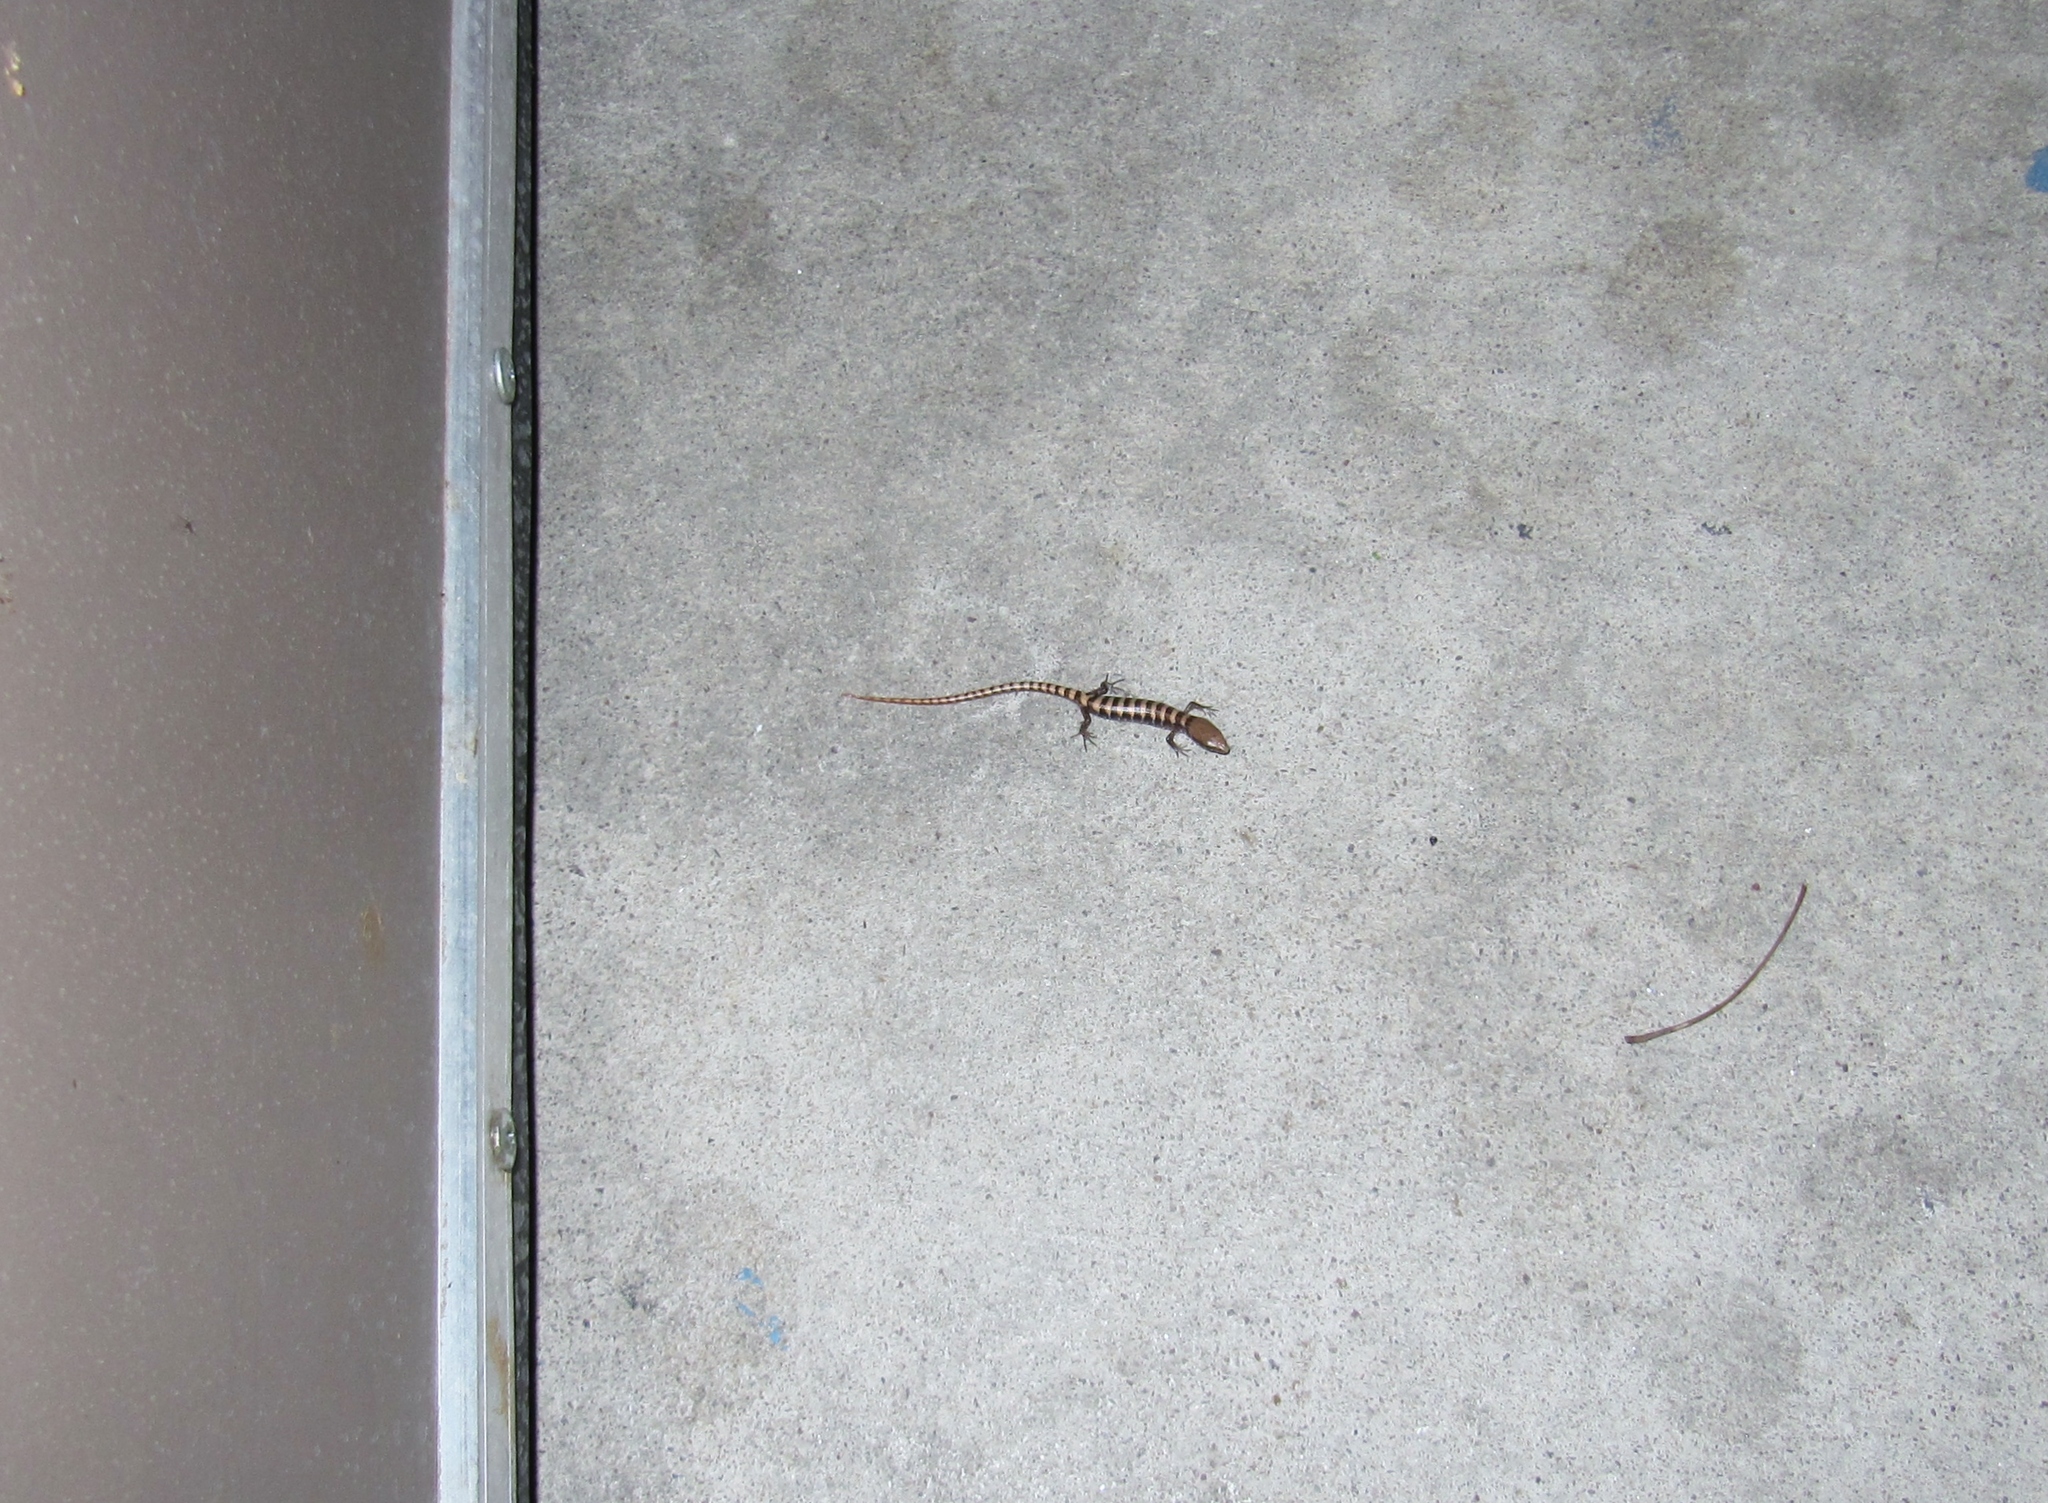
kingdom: Animalia
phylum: Chordata
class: Squamata
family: Anguidae
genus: Elgaria
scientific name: Elgaria kingii
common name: Madrean alligator lizard
